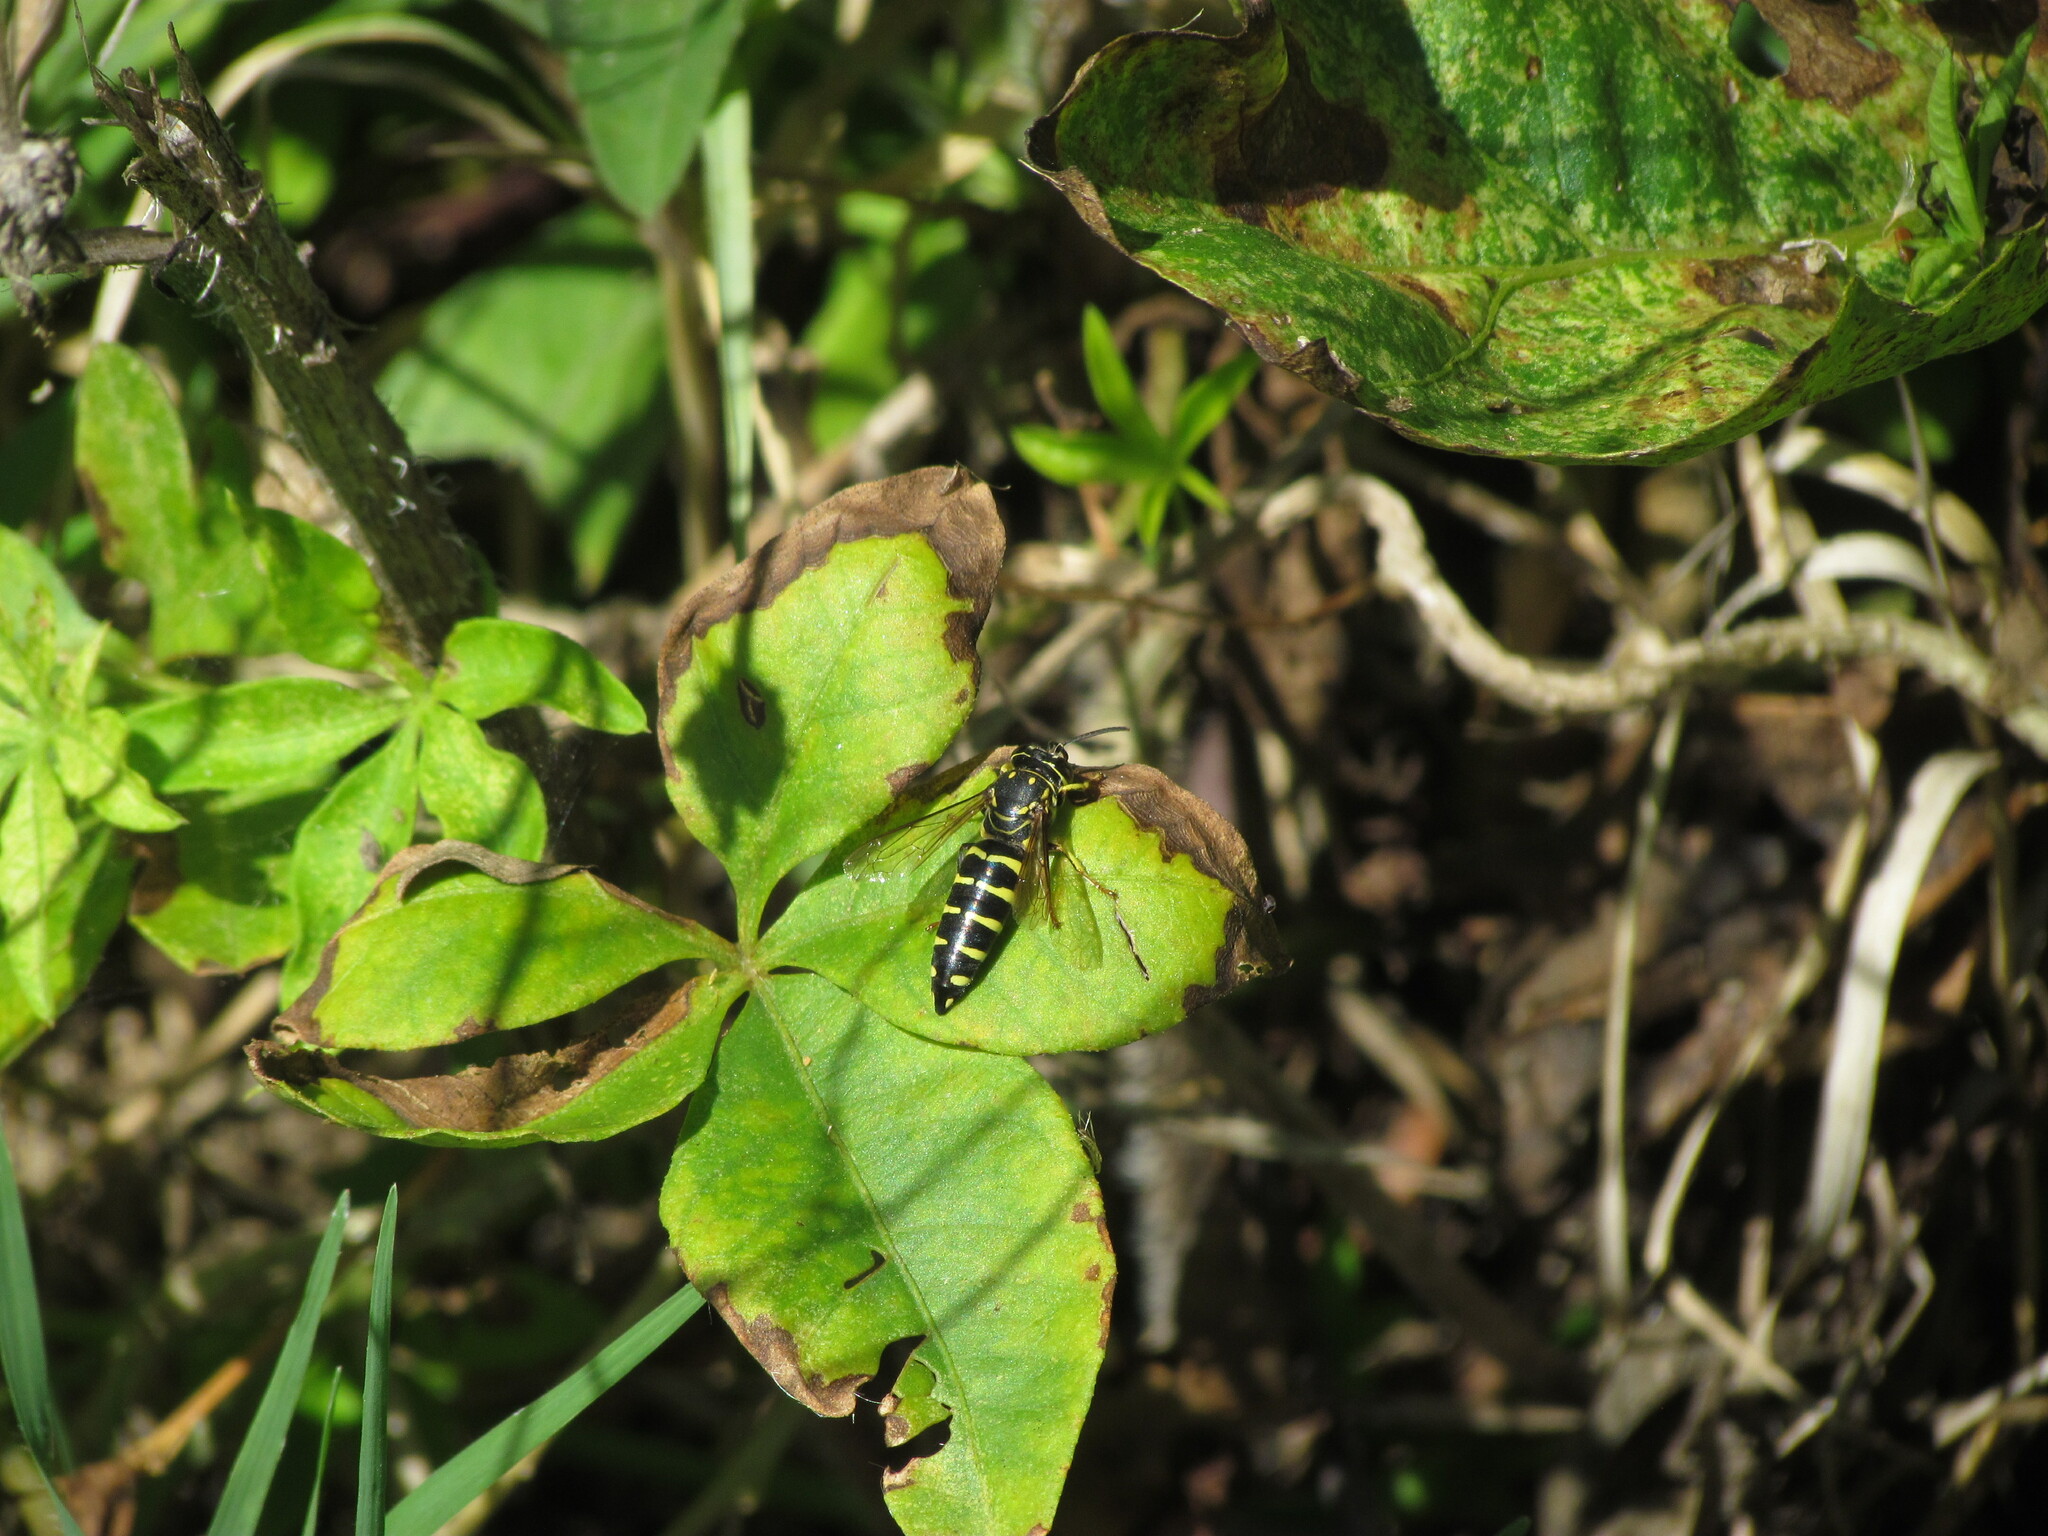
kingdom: Animalia
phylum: Arthropoda
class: Insecta
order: Hymenoptera
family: Crabronidae
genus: Bicyrtes
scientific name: Bicyrtes discisus
